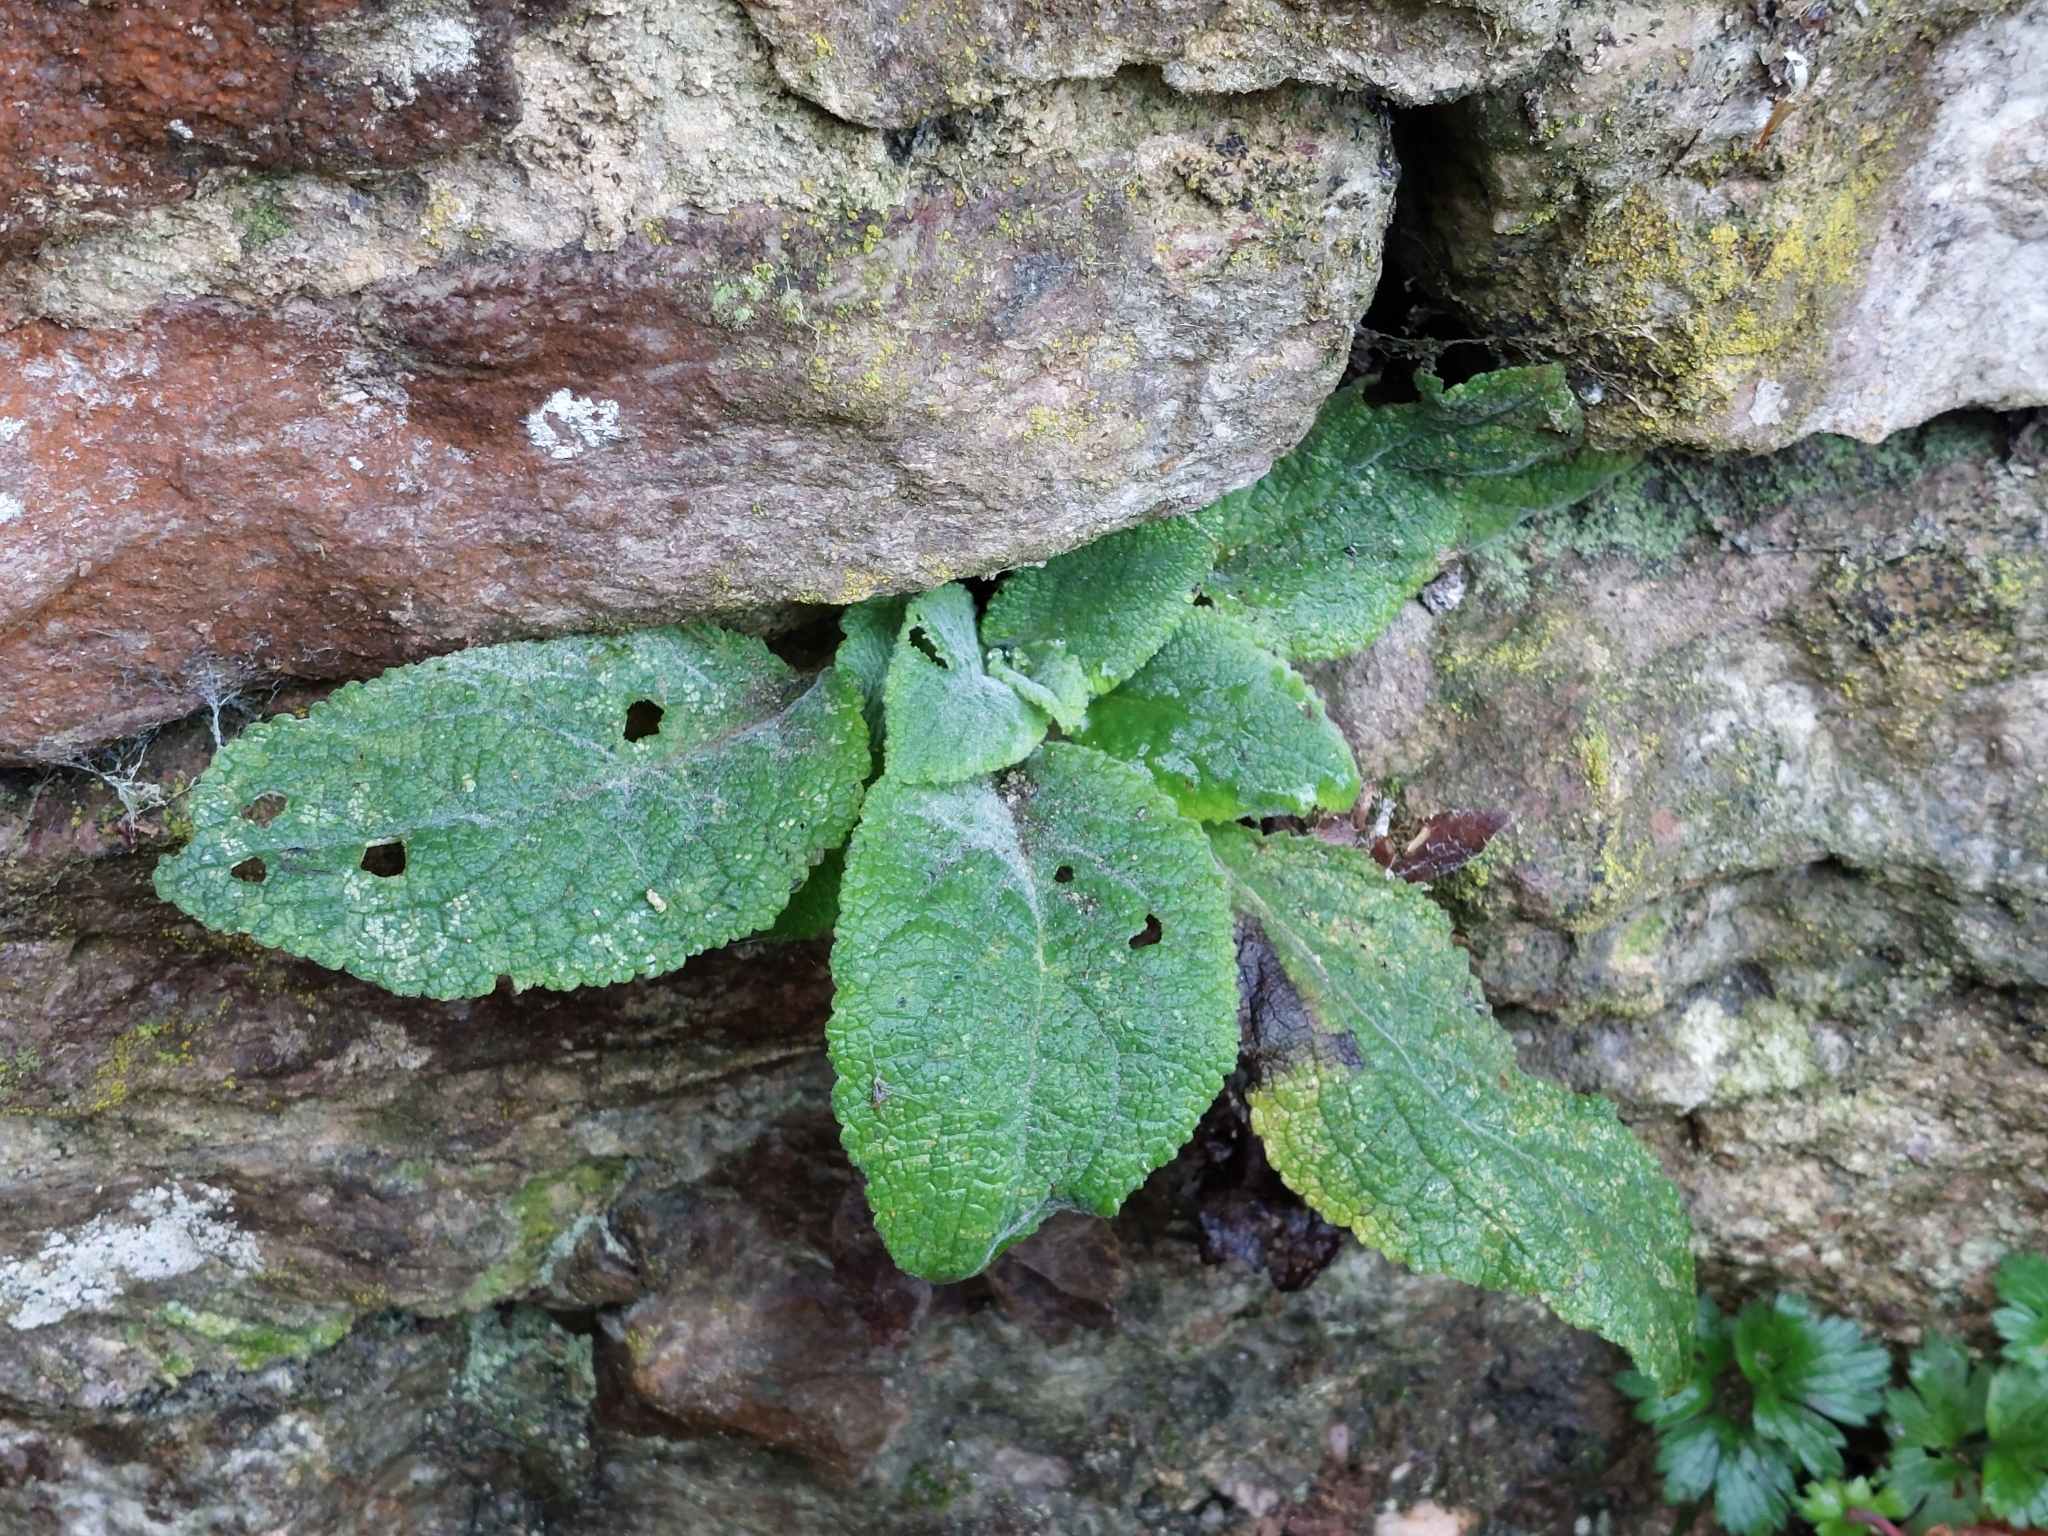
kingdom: Plantae
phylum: Tracheophyta
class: Magnoliopsida
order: Lamiales
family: Plantaginaceae
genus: Digitalis
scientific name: Digitalis purpurea
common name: Foxglove
